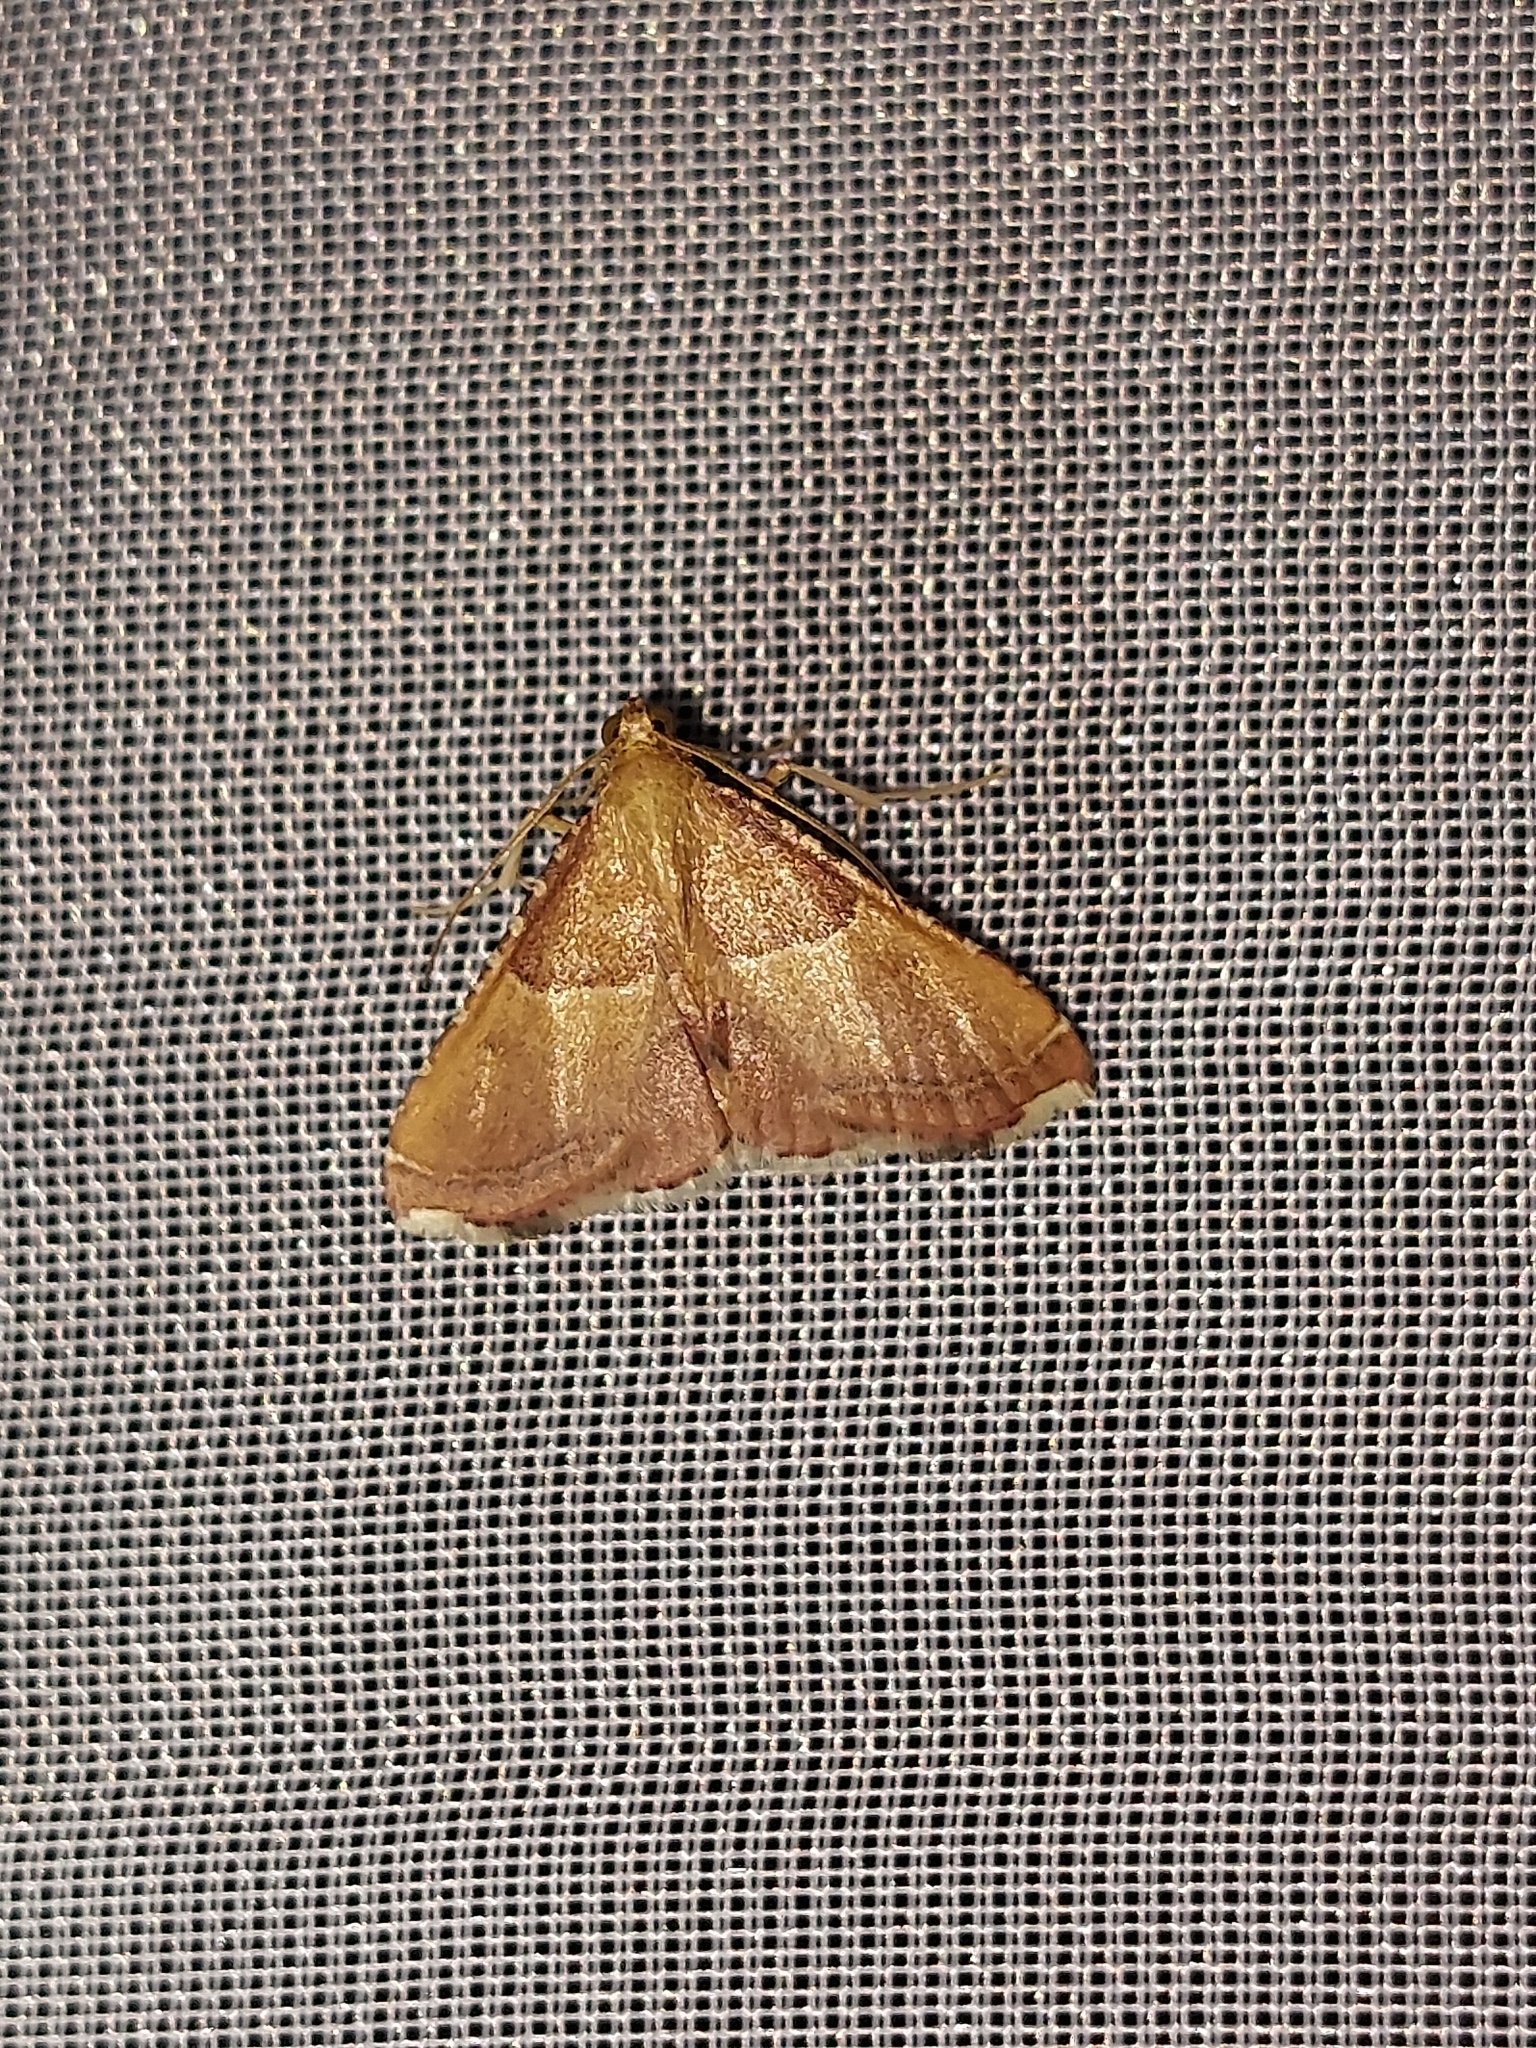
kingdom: Animalia
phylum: Arthropoda
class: Insecta
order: Lepidoptera
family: Pyralidae
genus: Endotricha
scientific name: Endotricha flammealis
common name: Rosy tabby
